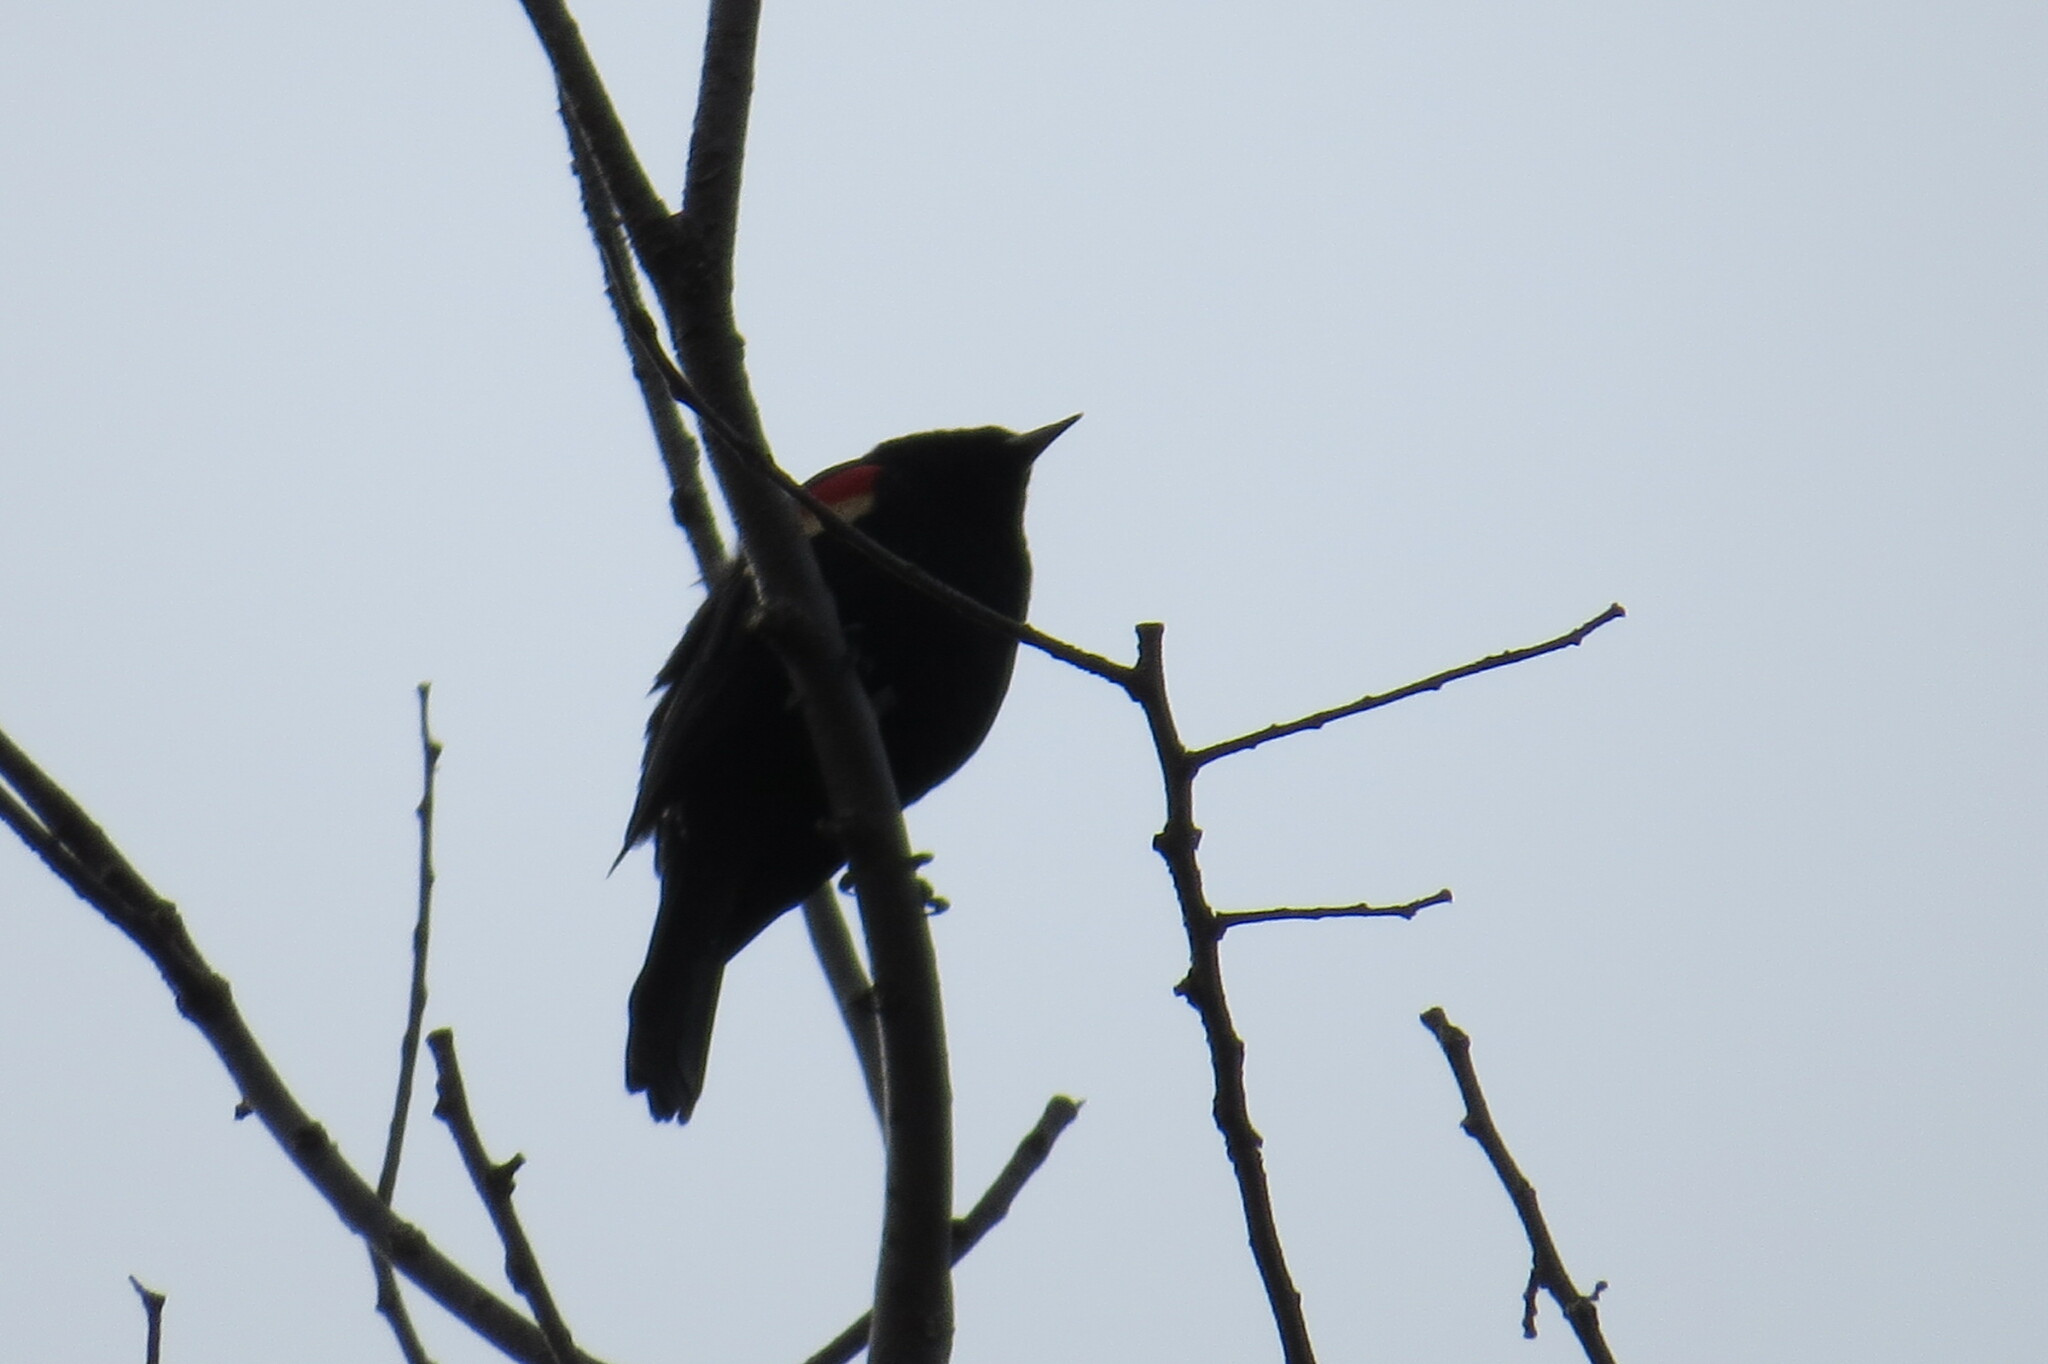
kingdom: Animalia
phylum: Chordata
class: Aves
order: Passeriformes
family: Icteridae
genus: Agelaius
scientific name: Agelaius phoeniceus
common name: Red-winged blackbird
